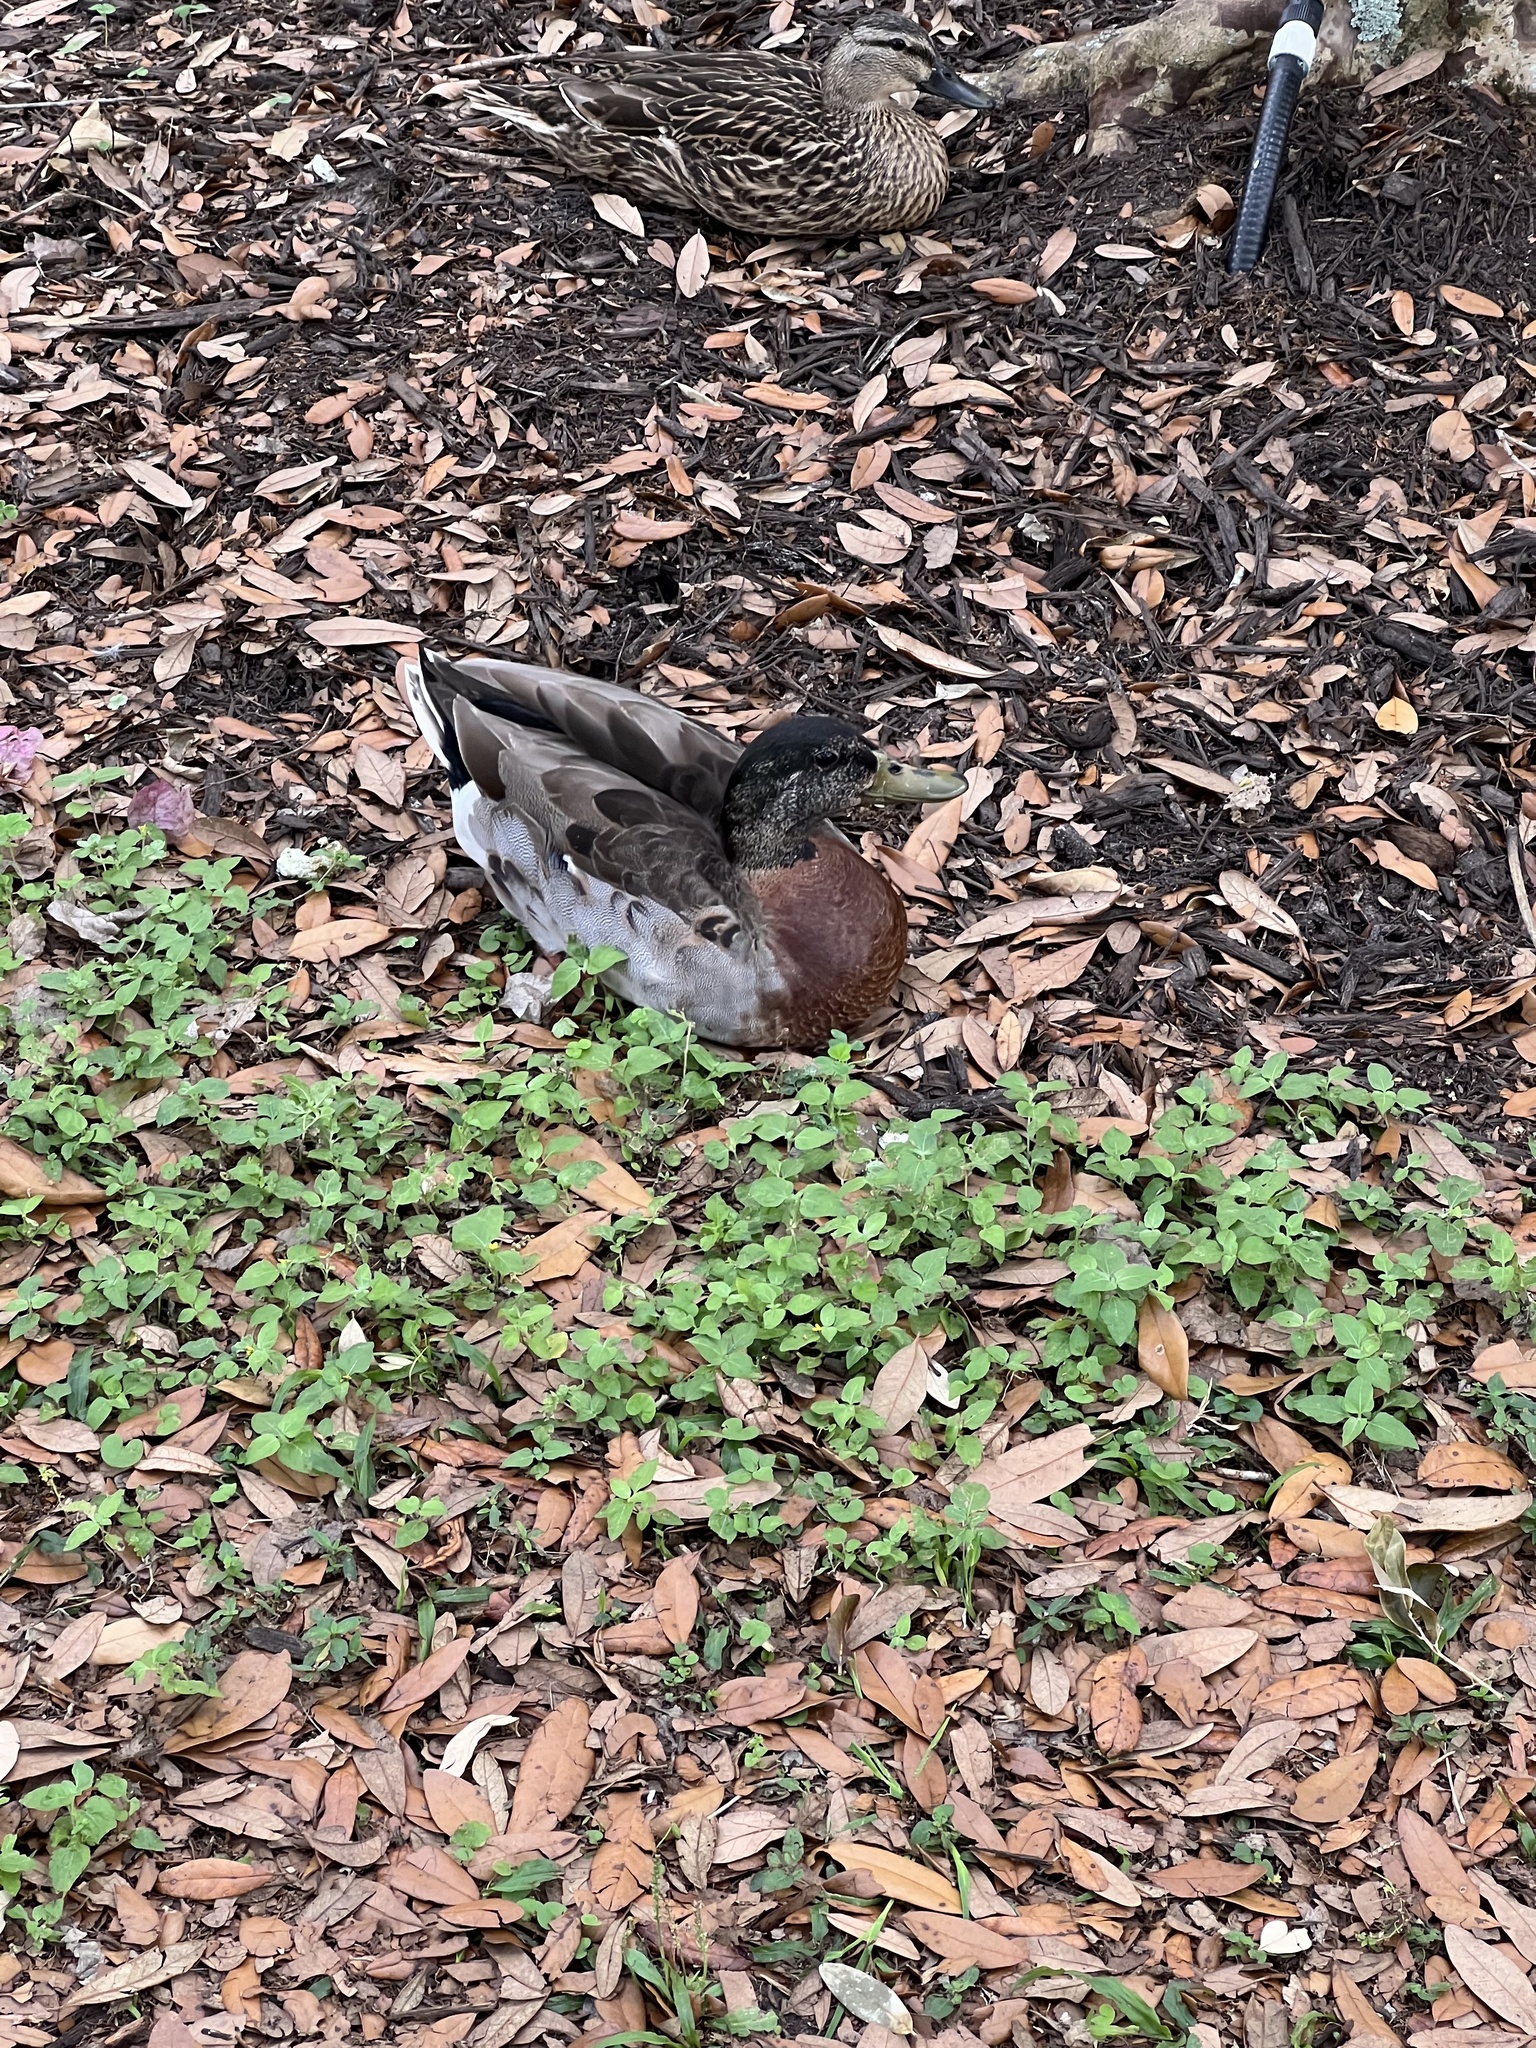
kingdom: Animalia
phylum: Chordata
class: Aves
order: Anseriformes
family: Anatidae
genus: Anas
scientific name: Anas platyrhynchos
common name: Mallard
